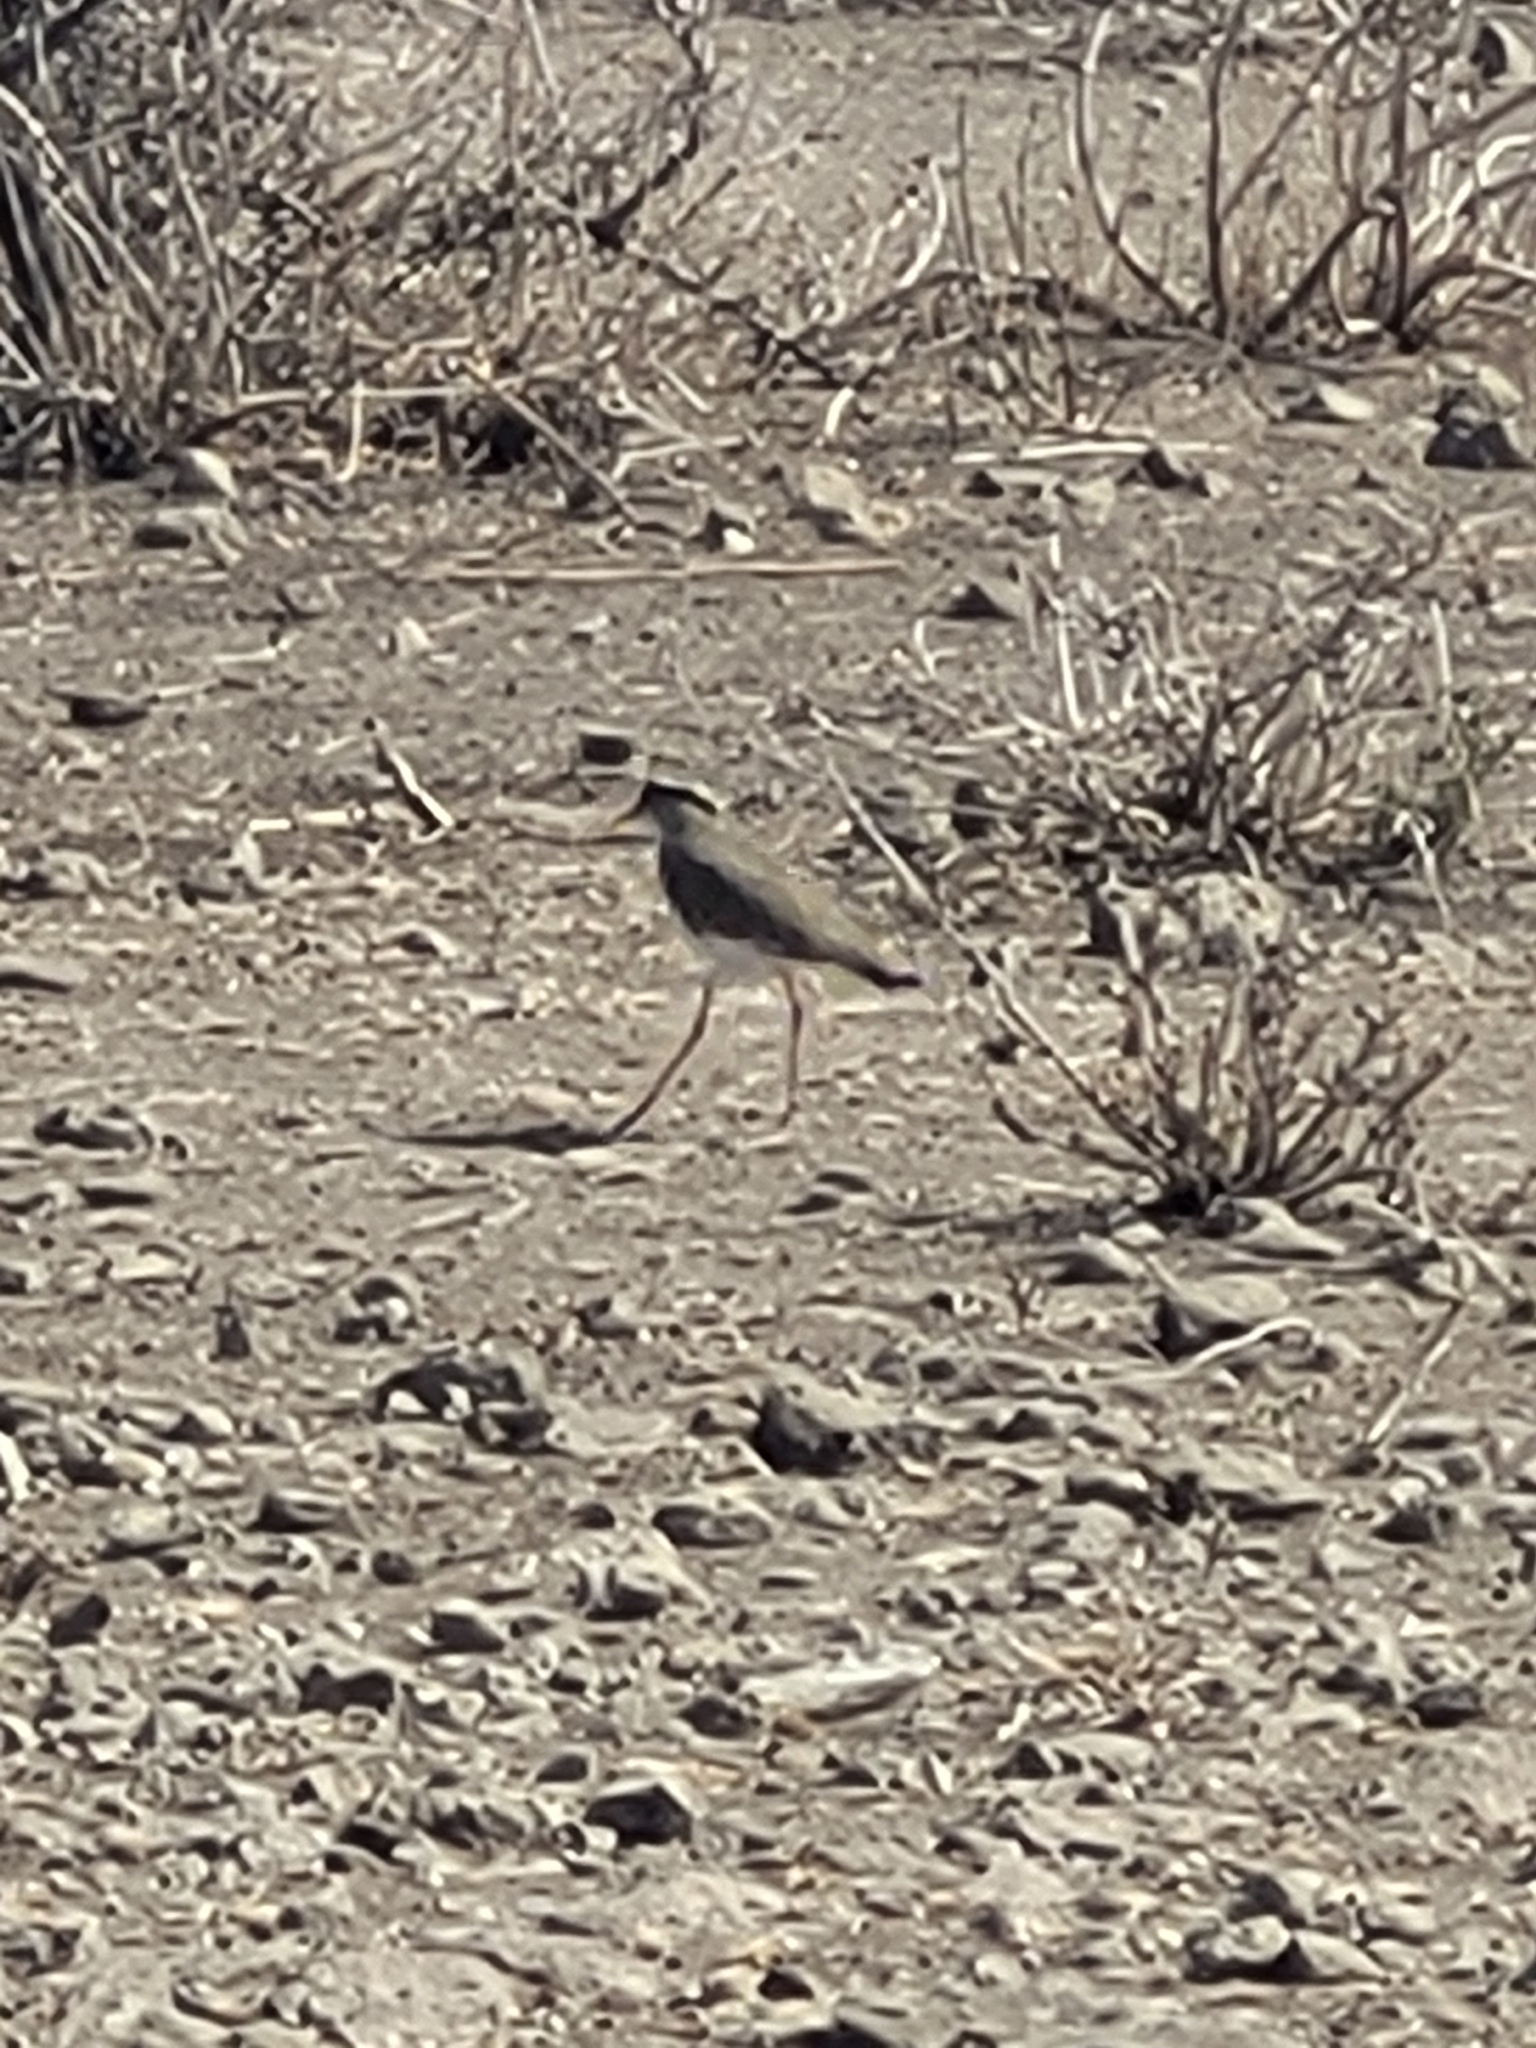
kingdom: Animalia
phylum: Chordata
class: Aves
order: Charadriiformes
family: Charadriidae
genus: Vanellus
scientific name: Vanellus coronatus
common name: Crowned lapwing
